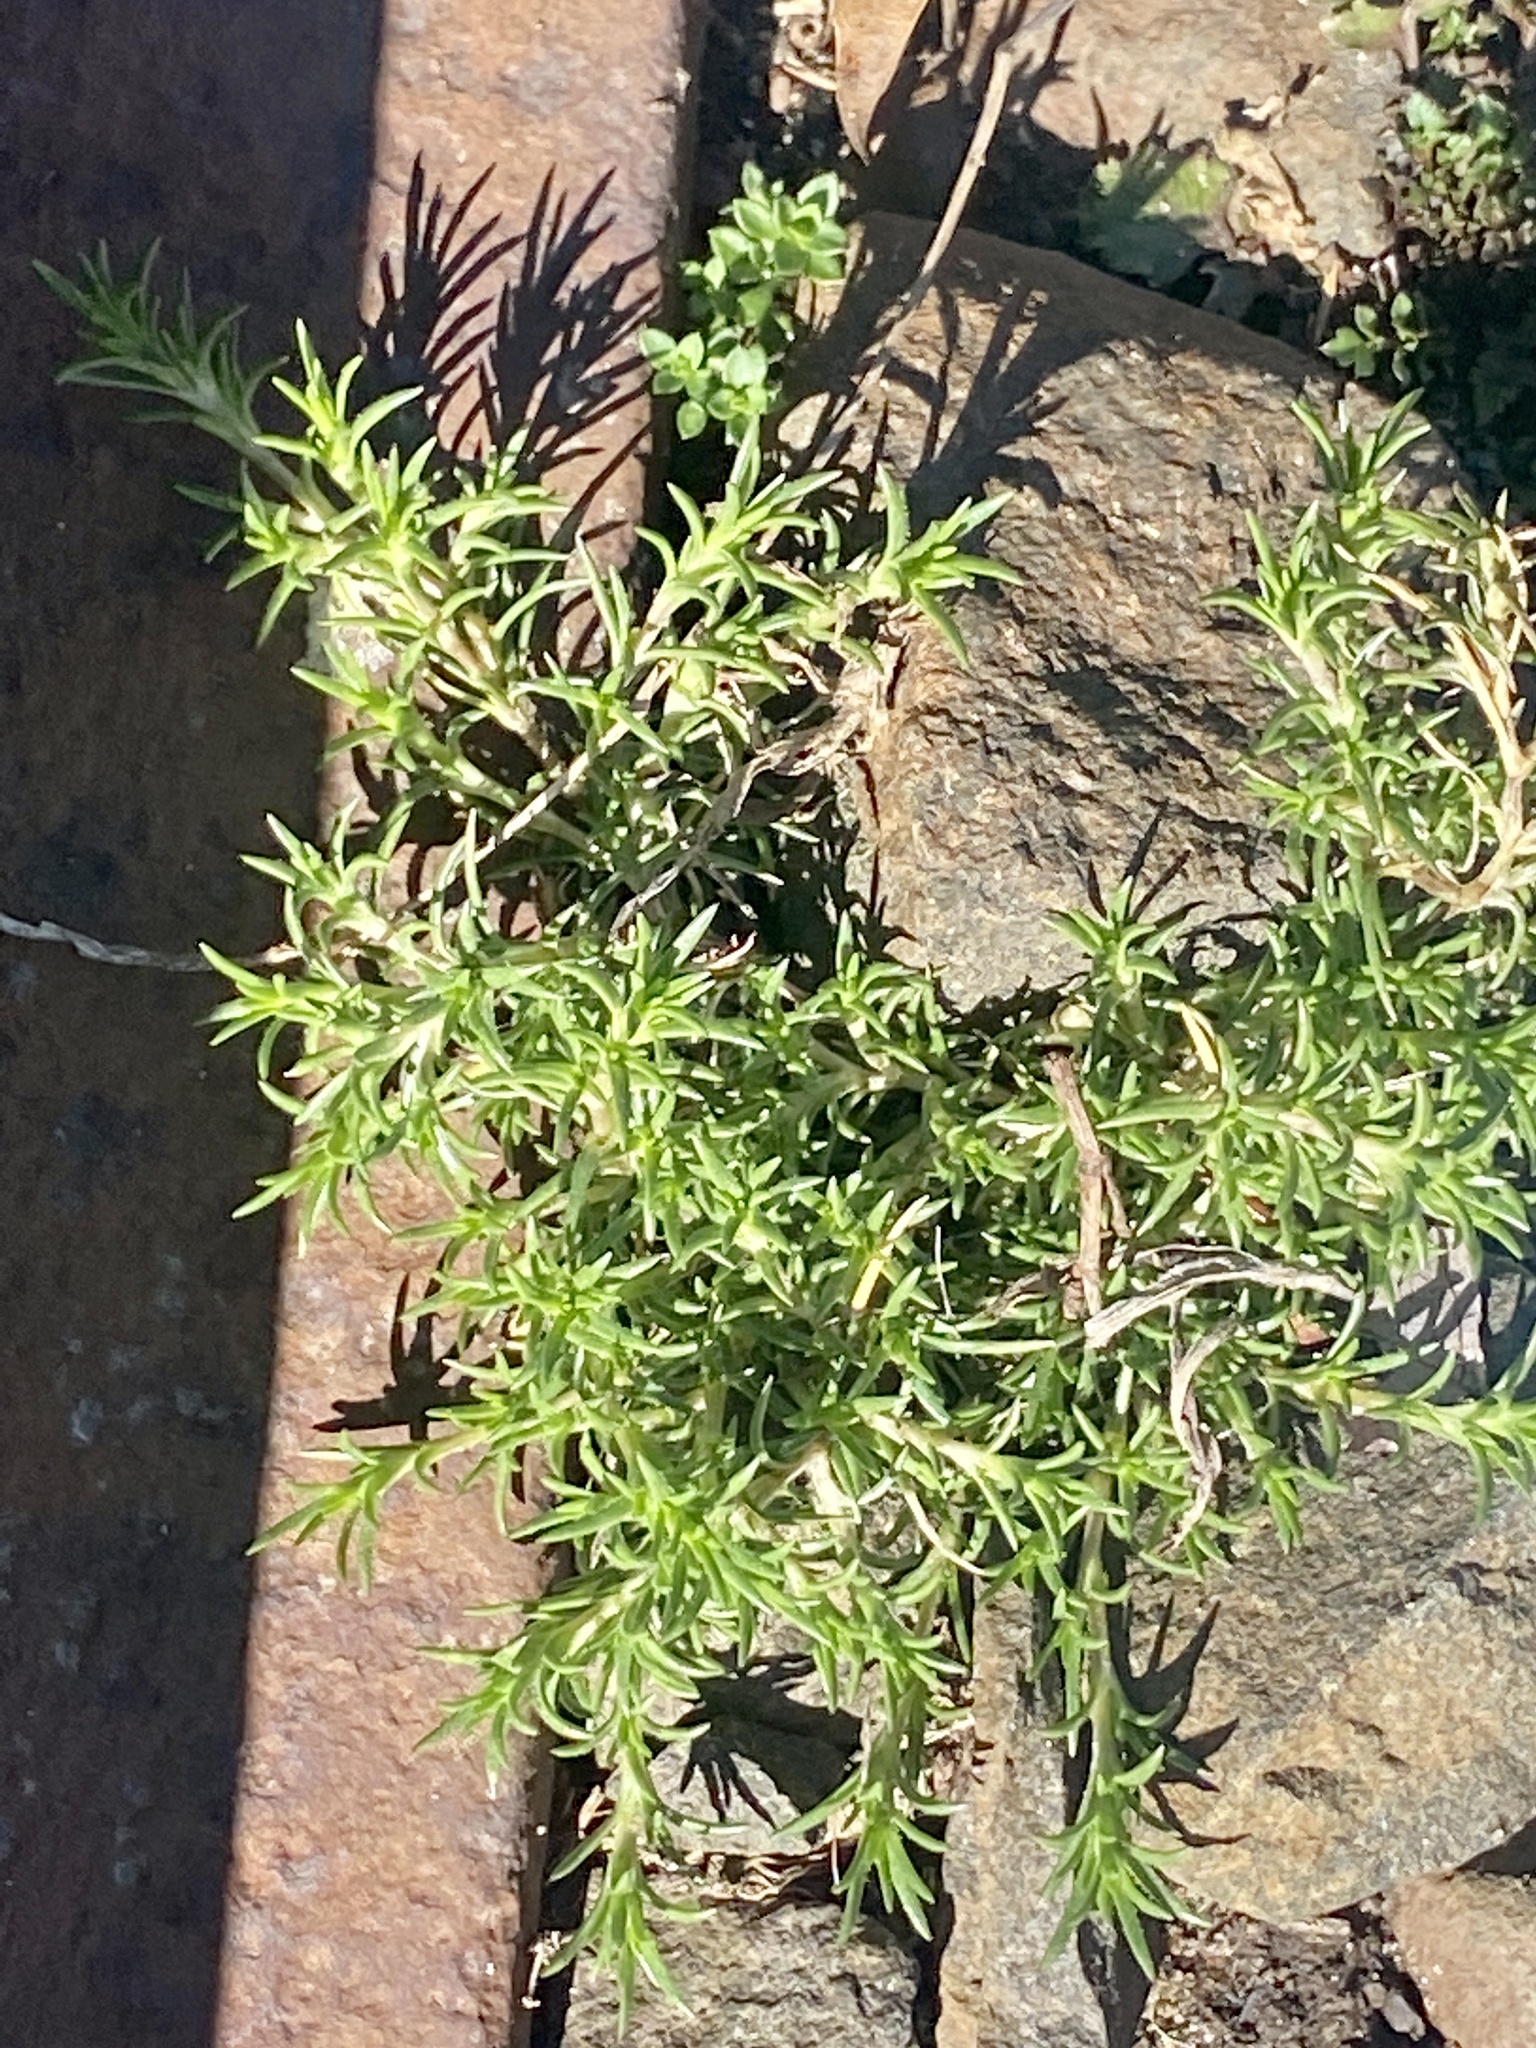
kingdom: Plantae
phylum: Tracheophyta
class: Magnoliopsida
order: Caryophyllales
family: Caryophyllaceae
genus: Scleranthus
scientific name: Scleranthus annuus
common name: Annual knawel
